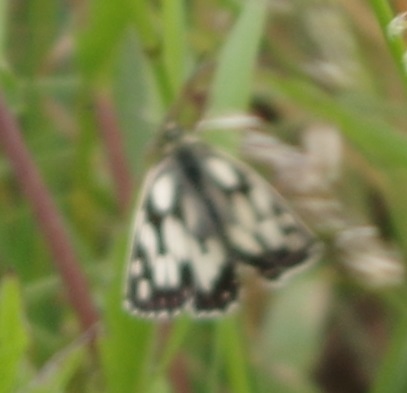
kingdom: Animalia
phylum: Arthropoda
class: Insecta
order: Lepidoptera
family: Nymphalidae
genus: Melanargia
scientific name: Melanargia galathea
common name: Marbled white
